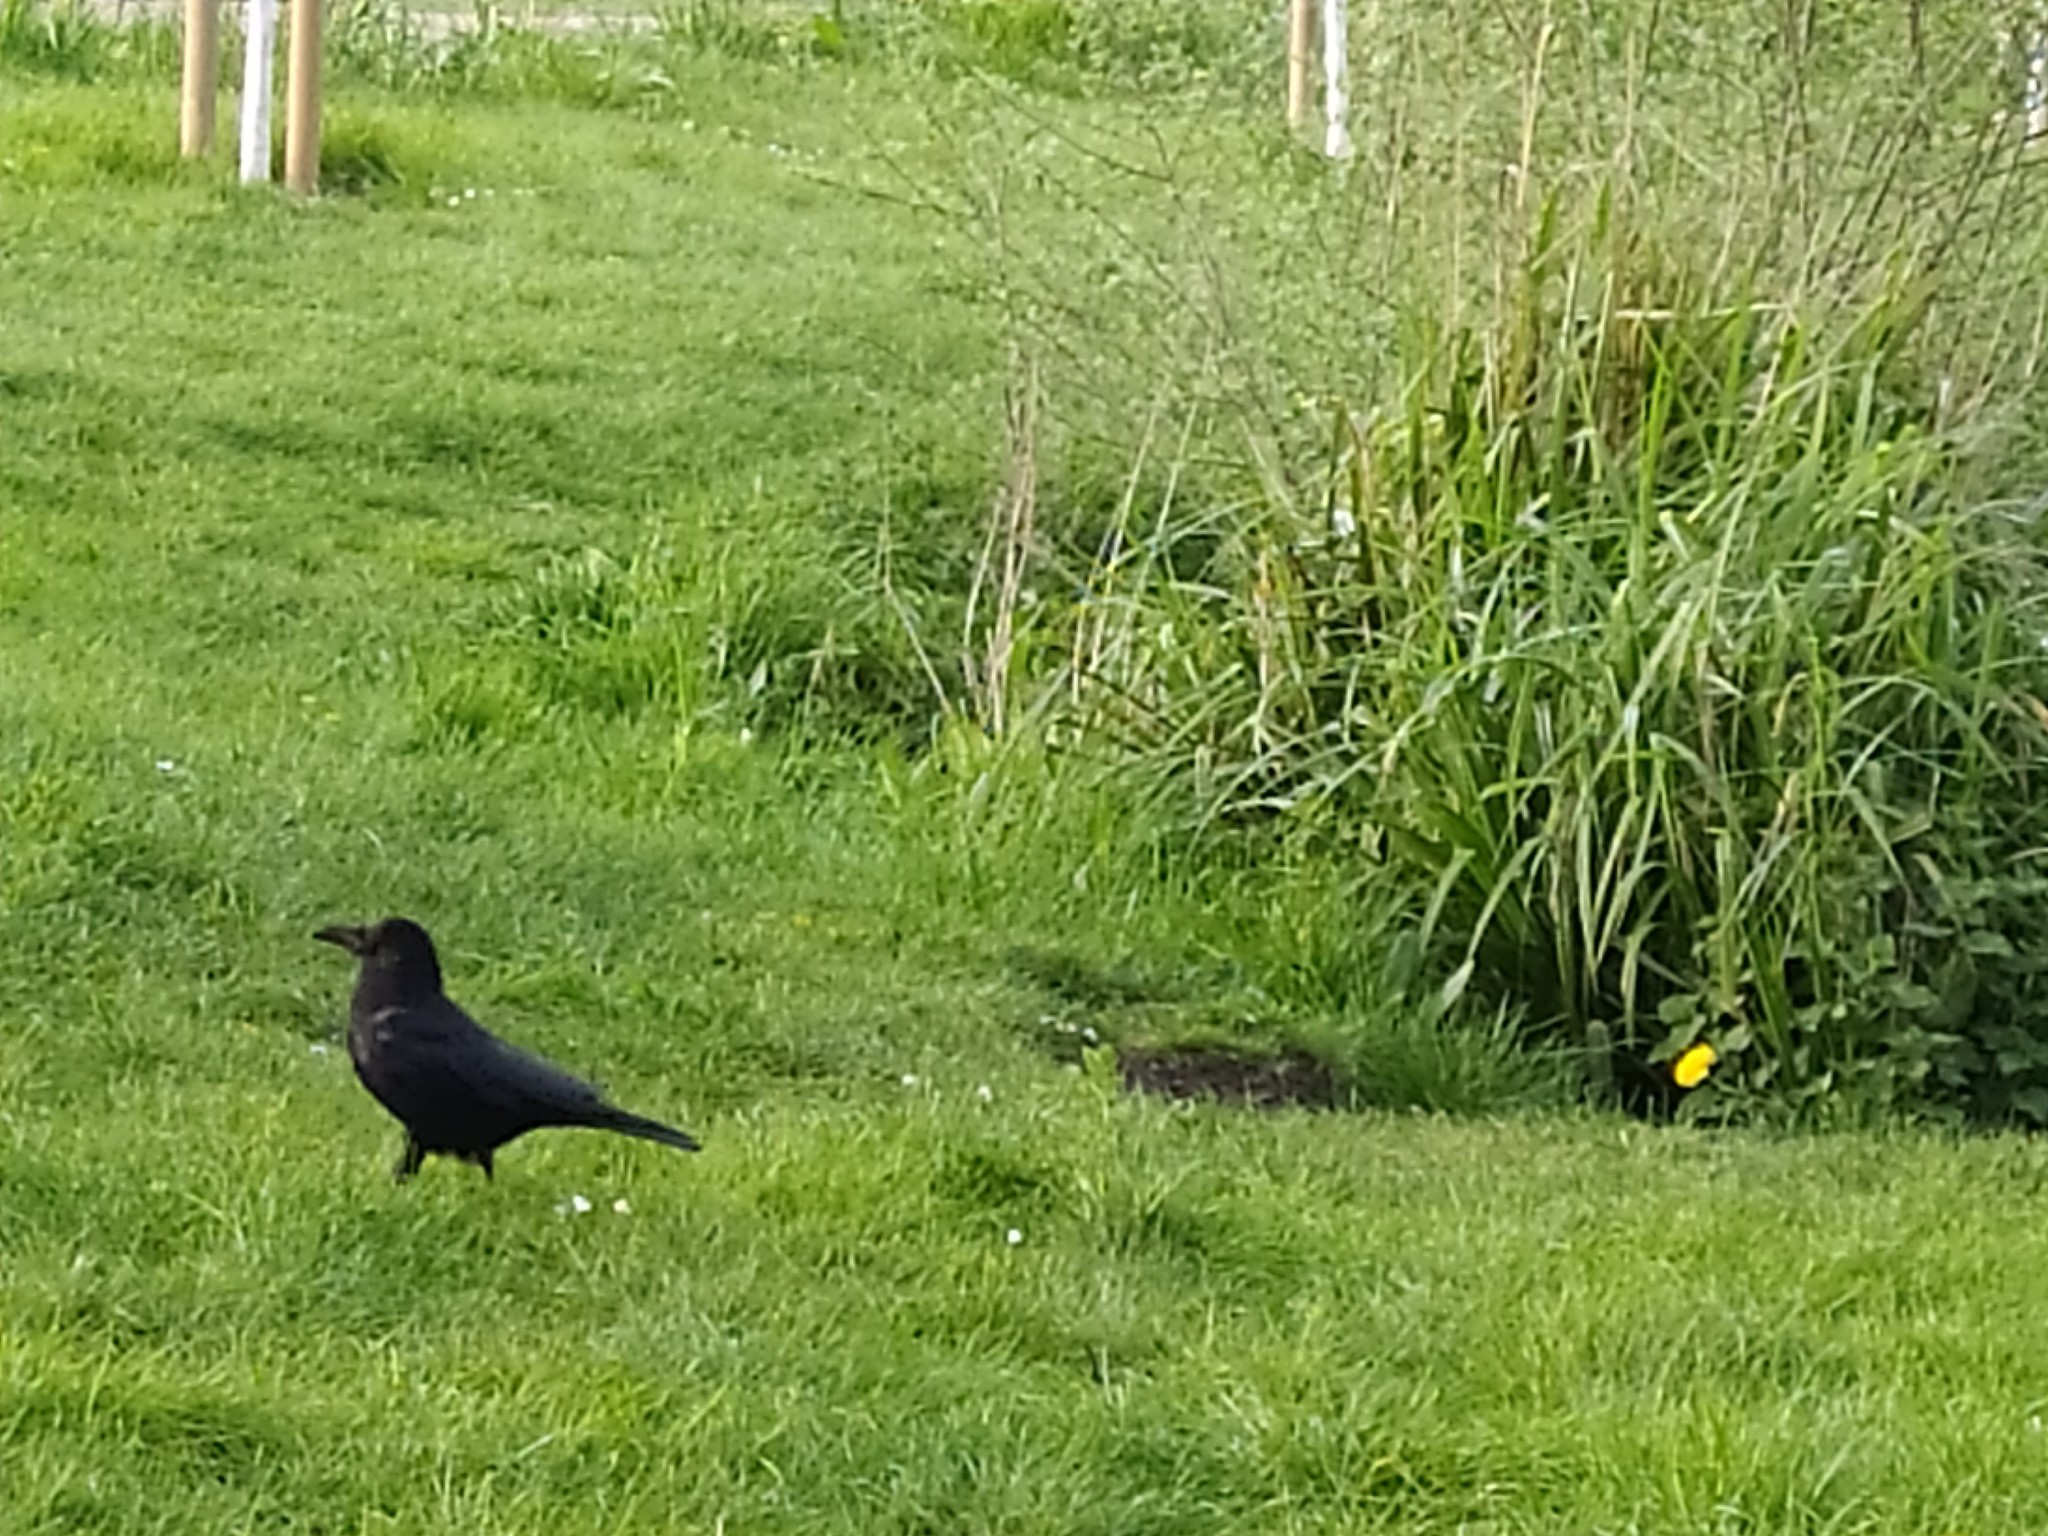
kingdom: Animalia
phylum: Chordata
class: Aves
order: Passeriformes
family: Corvidae
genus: Corvus
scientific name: Corvus frugilegus
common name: Rook
